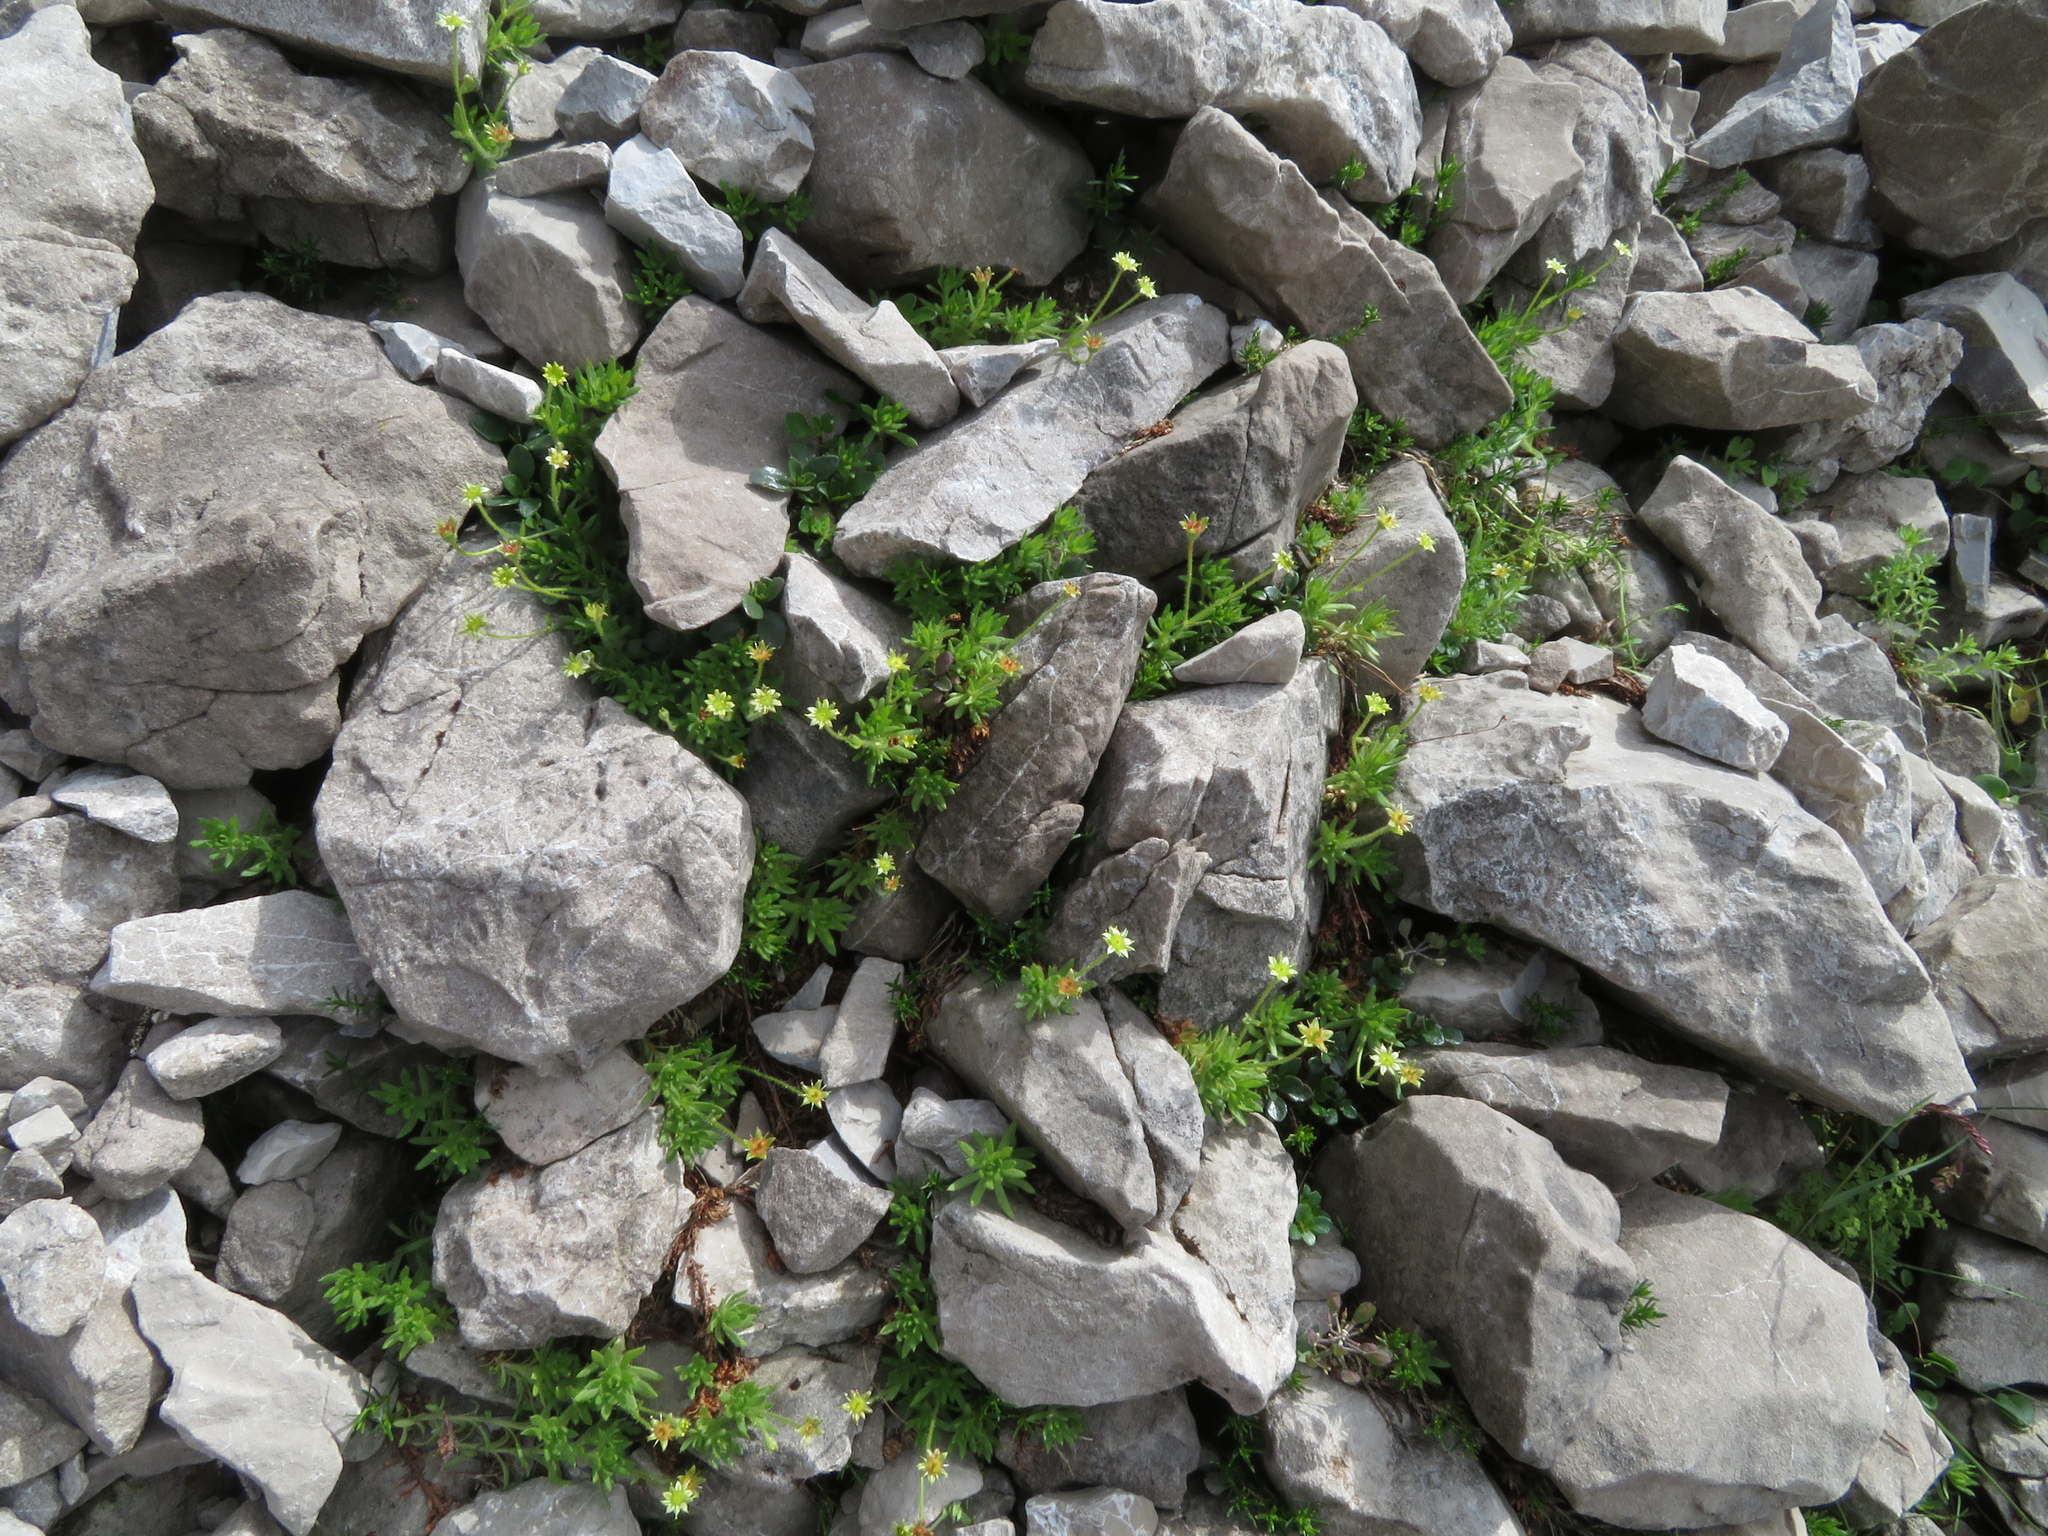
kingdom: Plantae
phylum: Tracheophyta
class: Magnoliopsida
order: Saxifragales
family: Saxifragaceae
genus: Saxifraga
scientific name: Saxifraga sedoides
